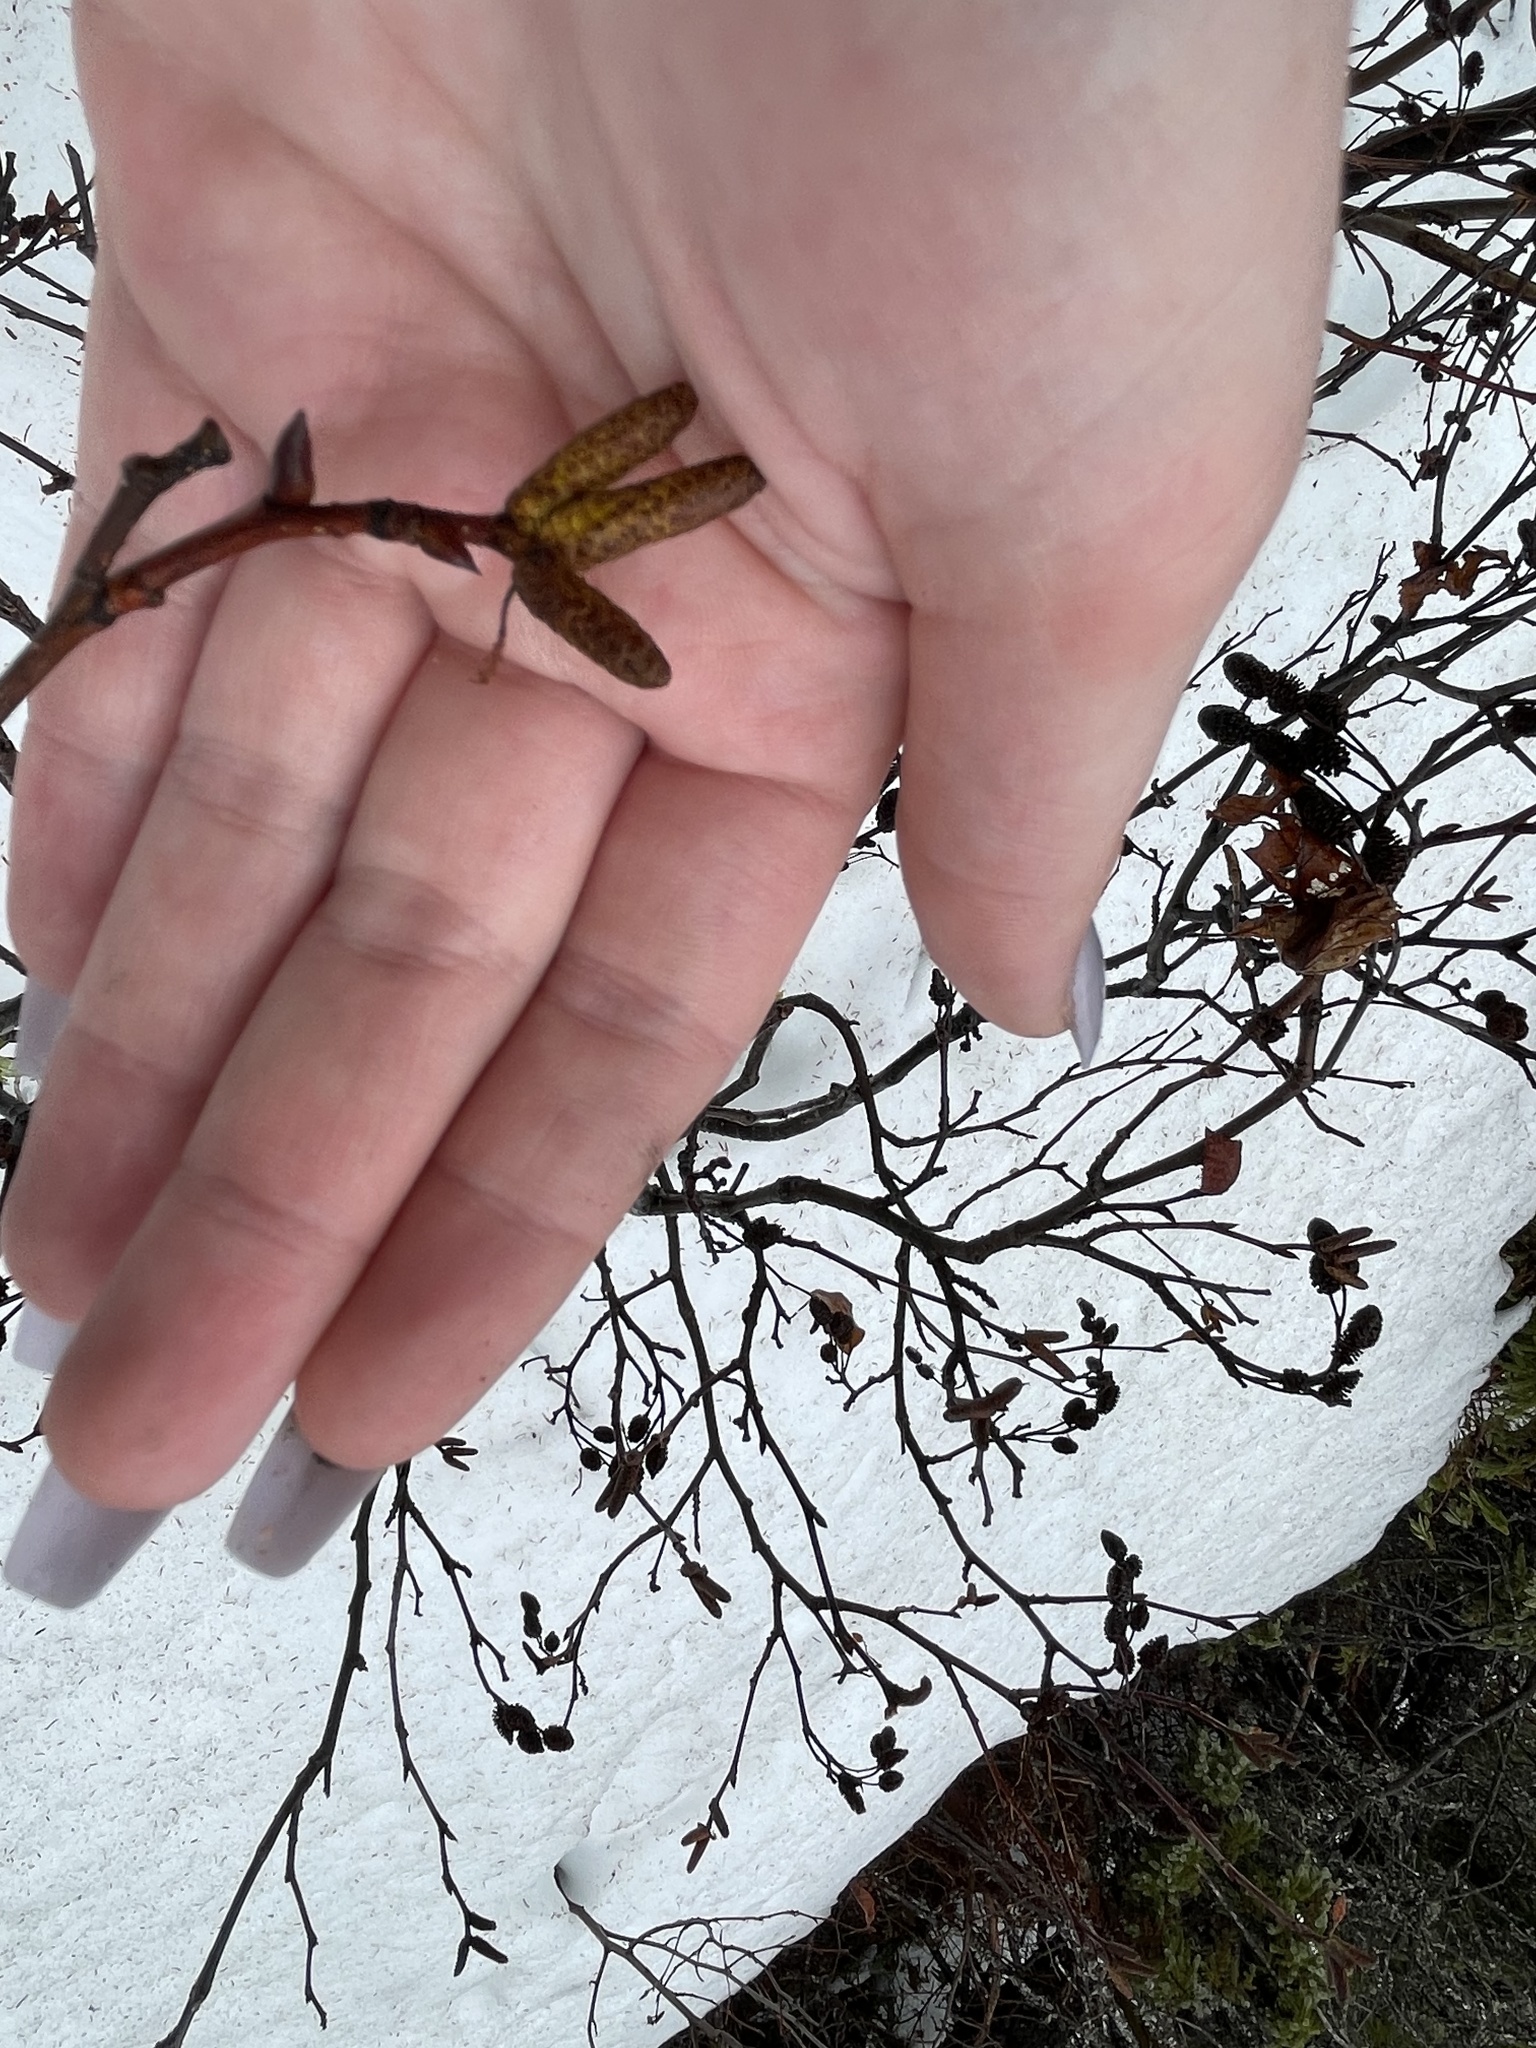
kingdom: Plantae
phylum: Tracheophyta
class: Magnoliopsida
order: Fagales
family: Betulaceae
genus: Alnus
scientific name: Alnus alnobetula
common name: Green alder
